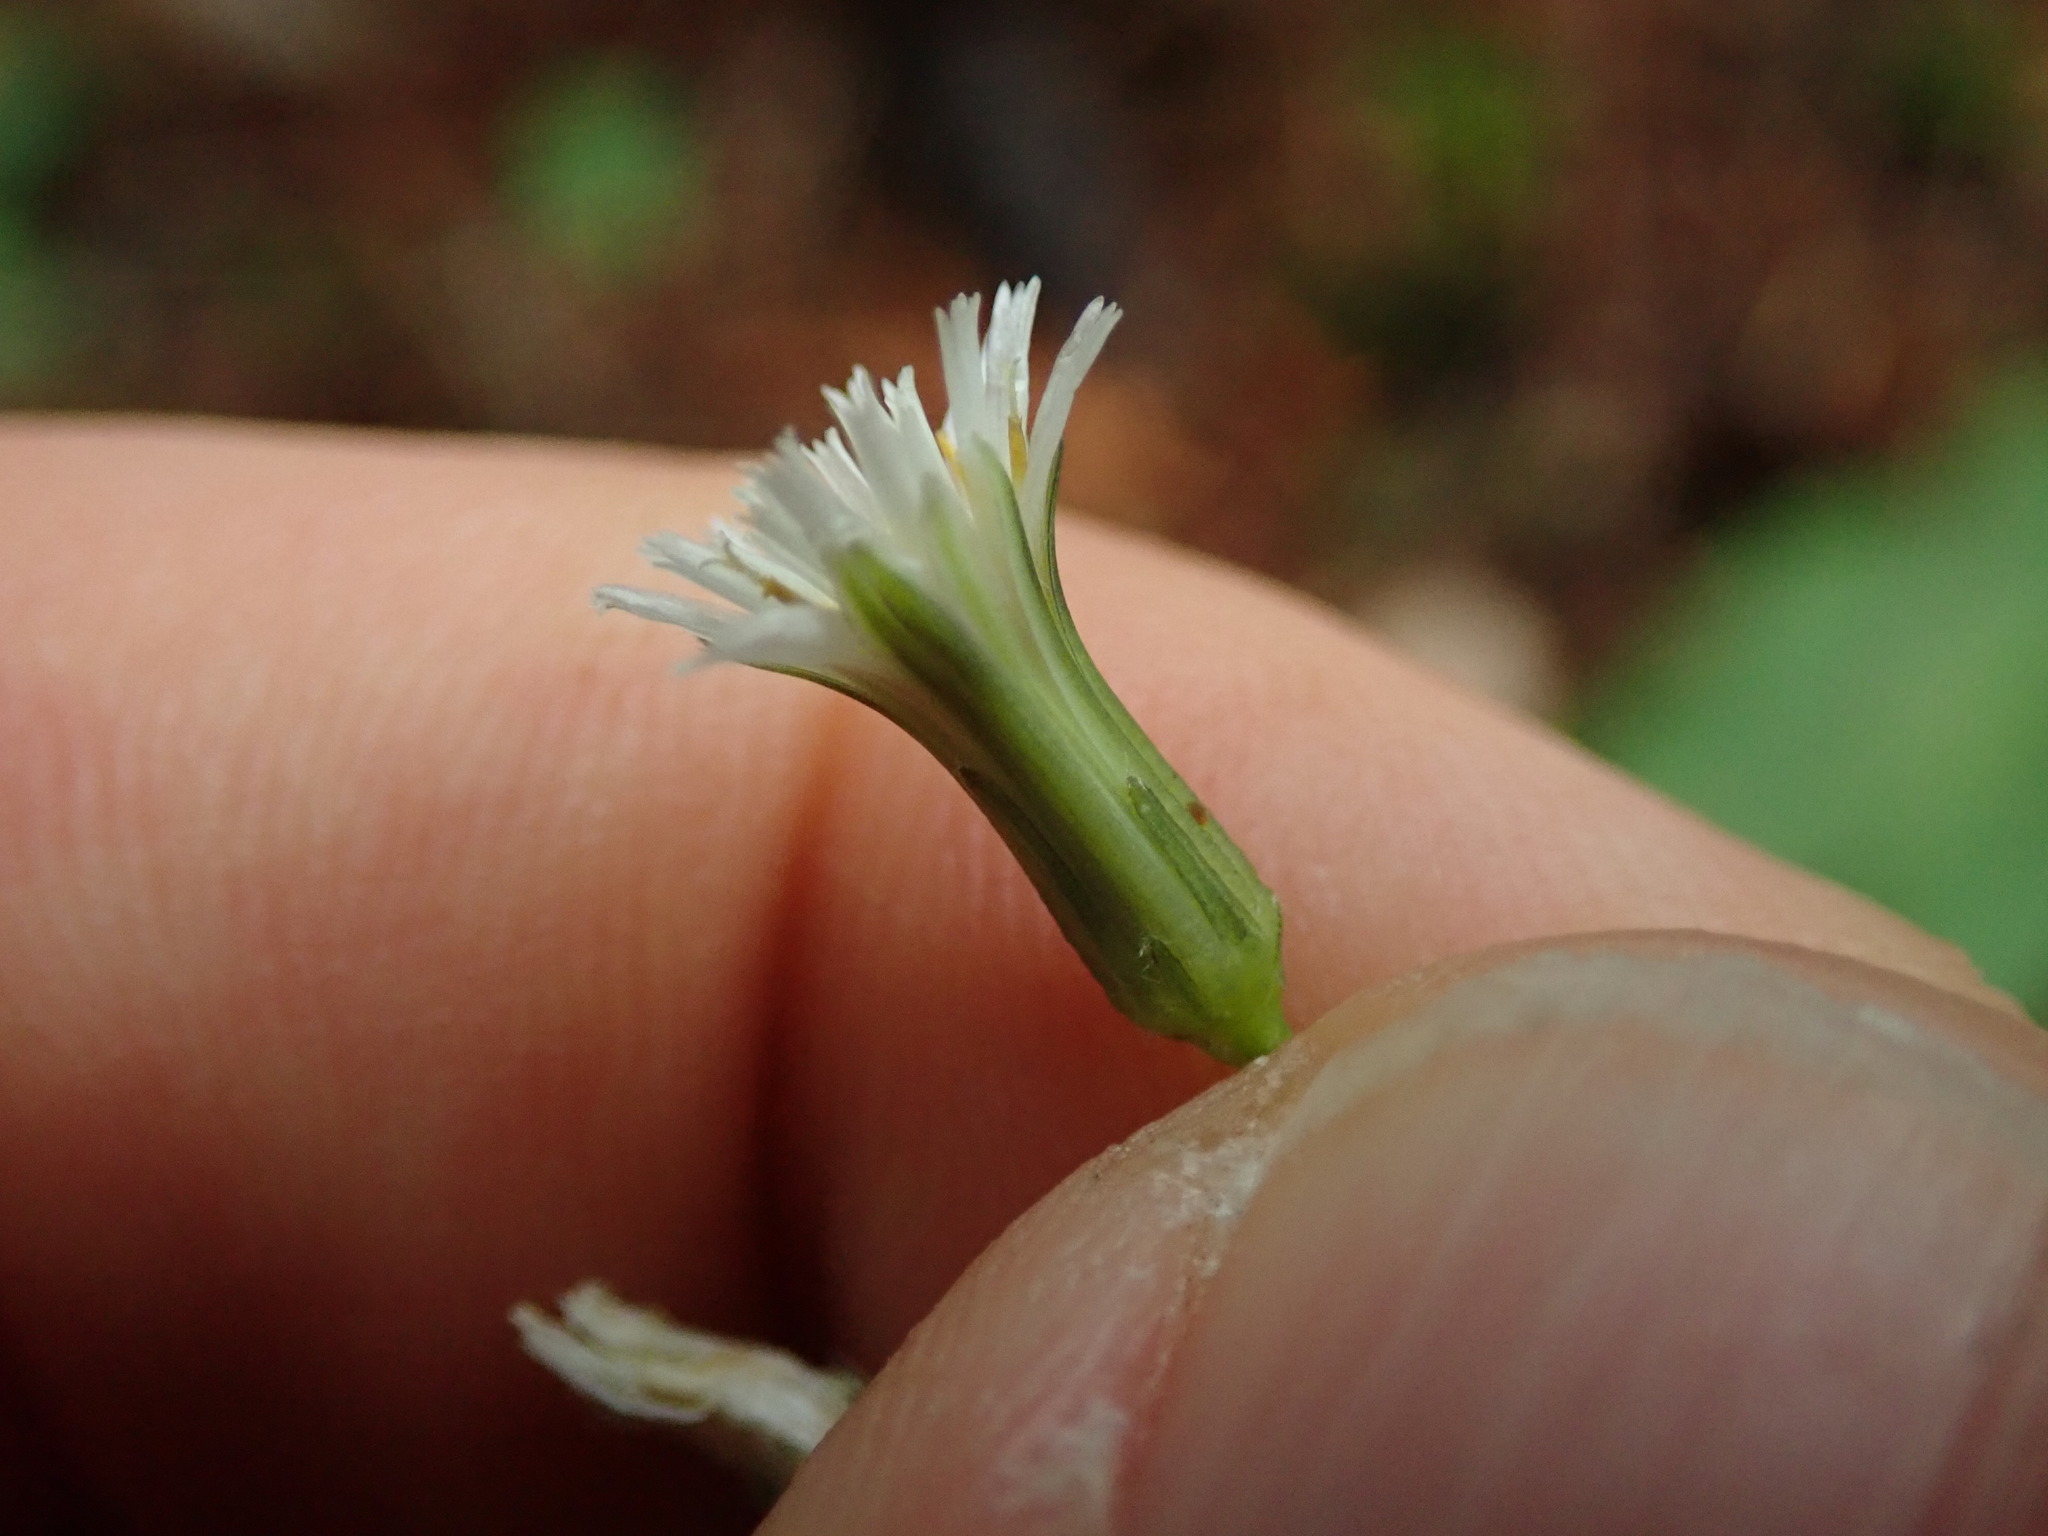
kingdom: Plantae
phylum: Tracheophyta
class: Magnoliopsida
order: Asterales
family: Asteraceae
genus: Hieracium
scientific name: Hieracium albiflorum
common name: White hawkweed
